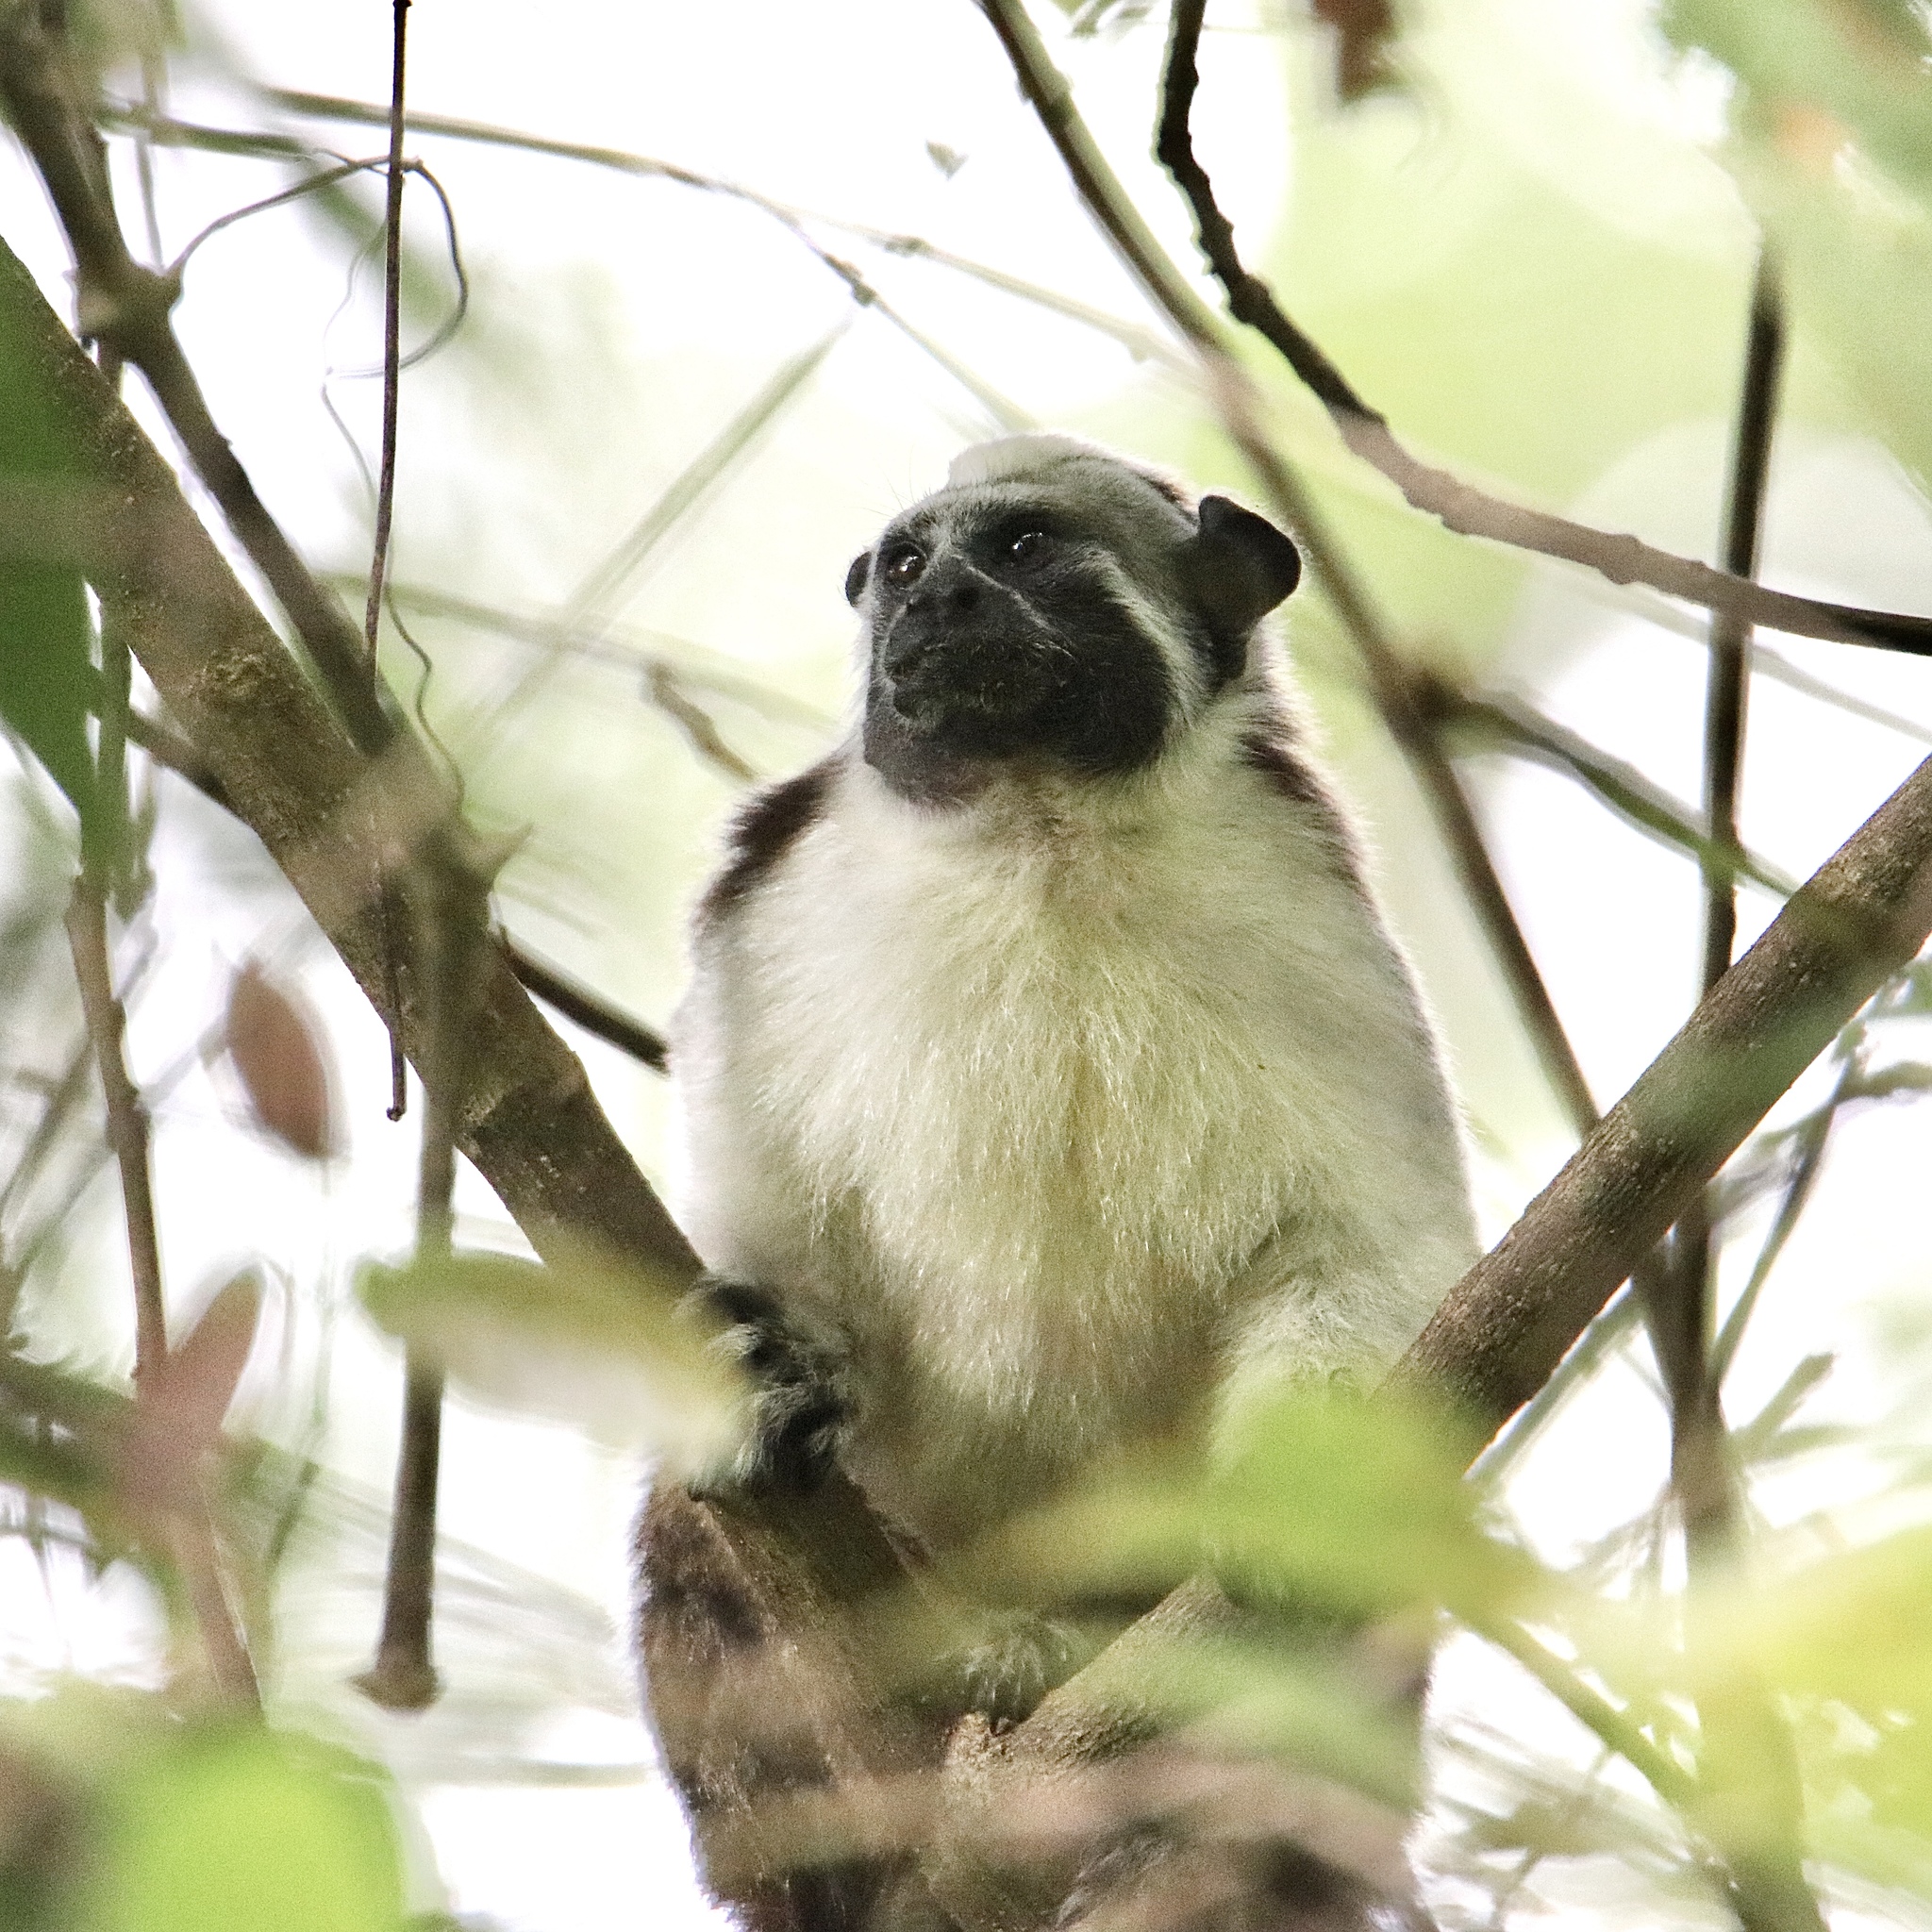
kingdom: Animalia
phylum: Chordata
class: Mammalia
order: Primates
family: Callitrichidae
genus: Saguinus
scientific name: Saguinus geoffroyi
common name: Geoffroy s tamarin
